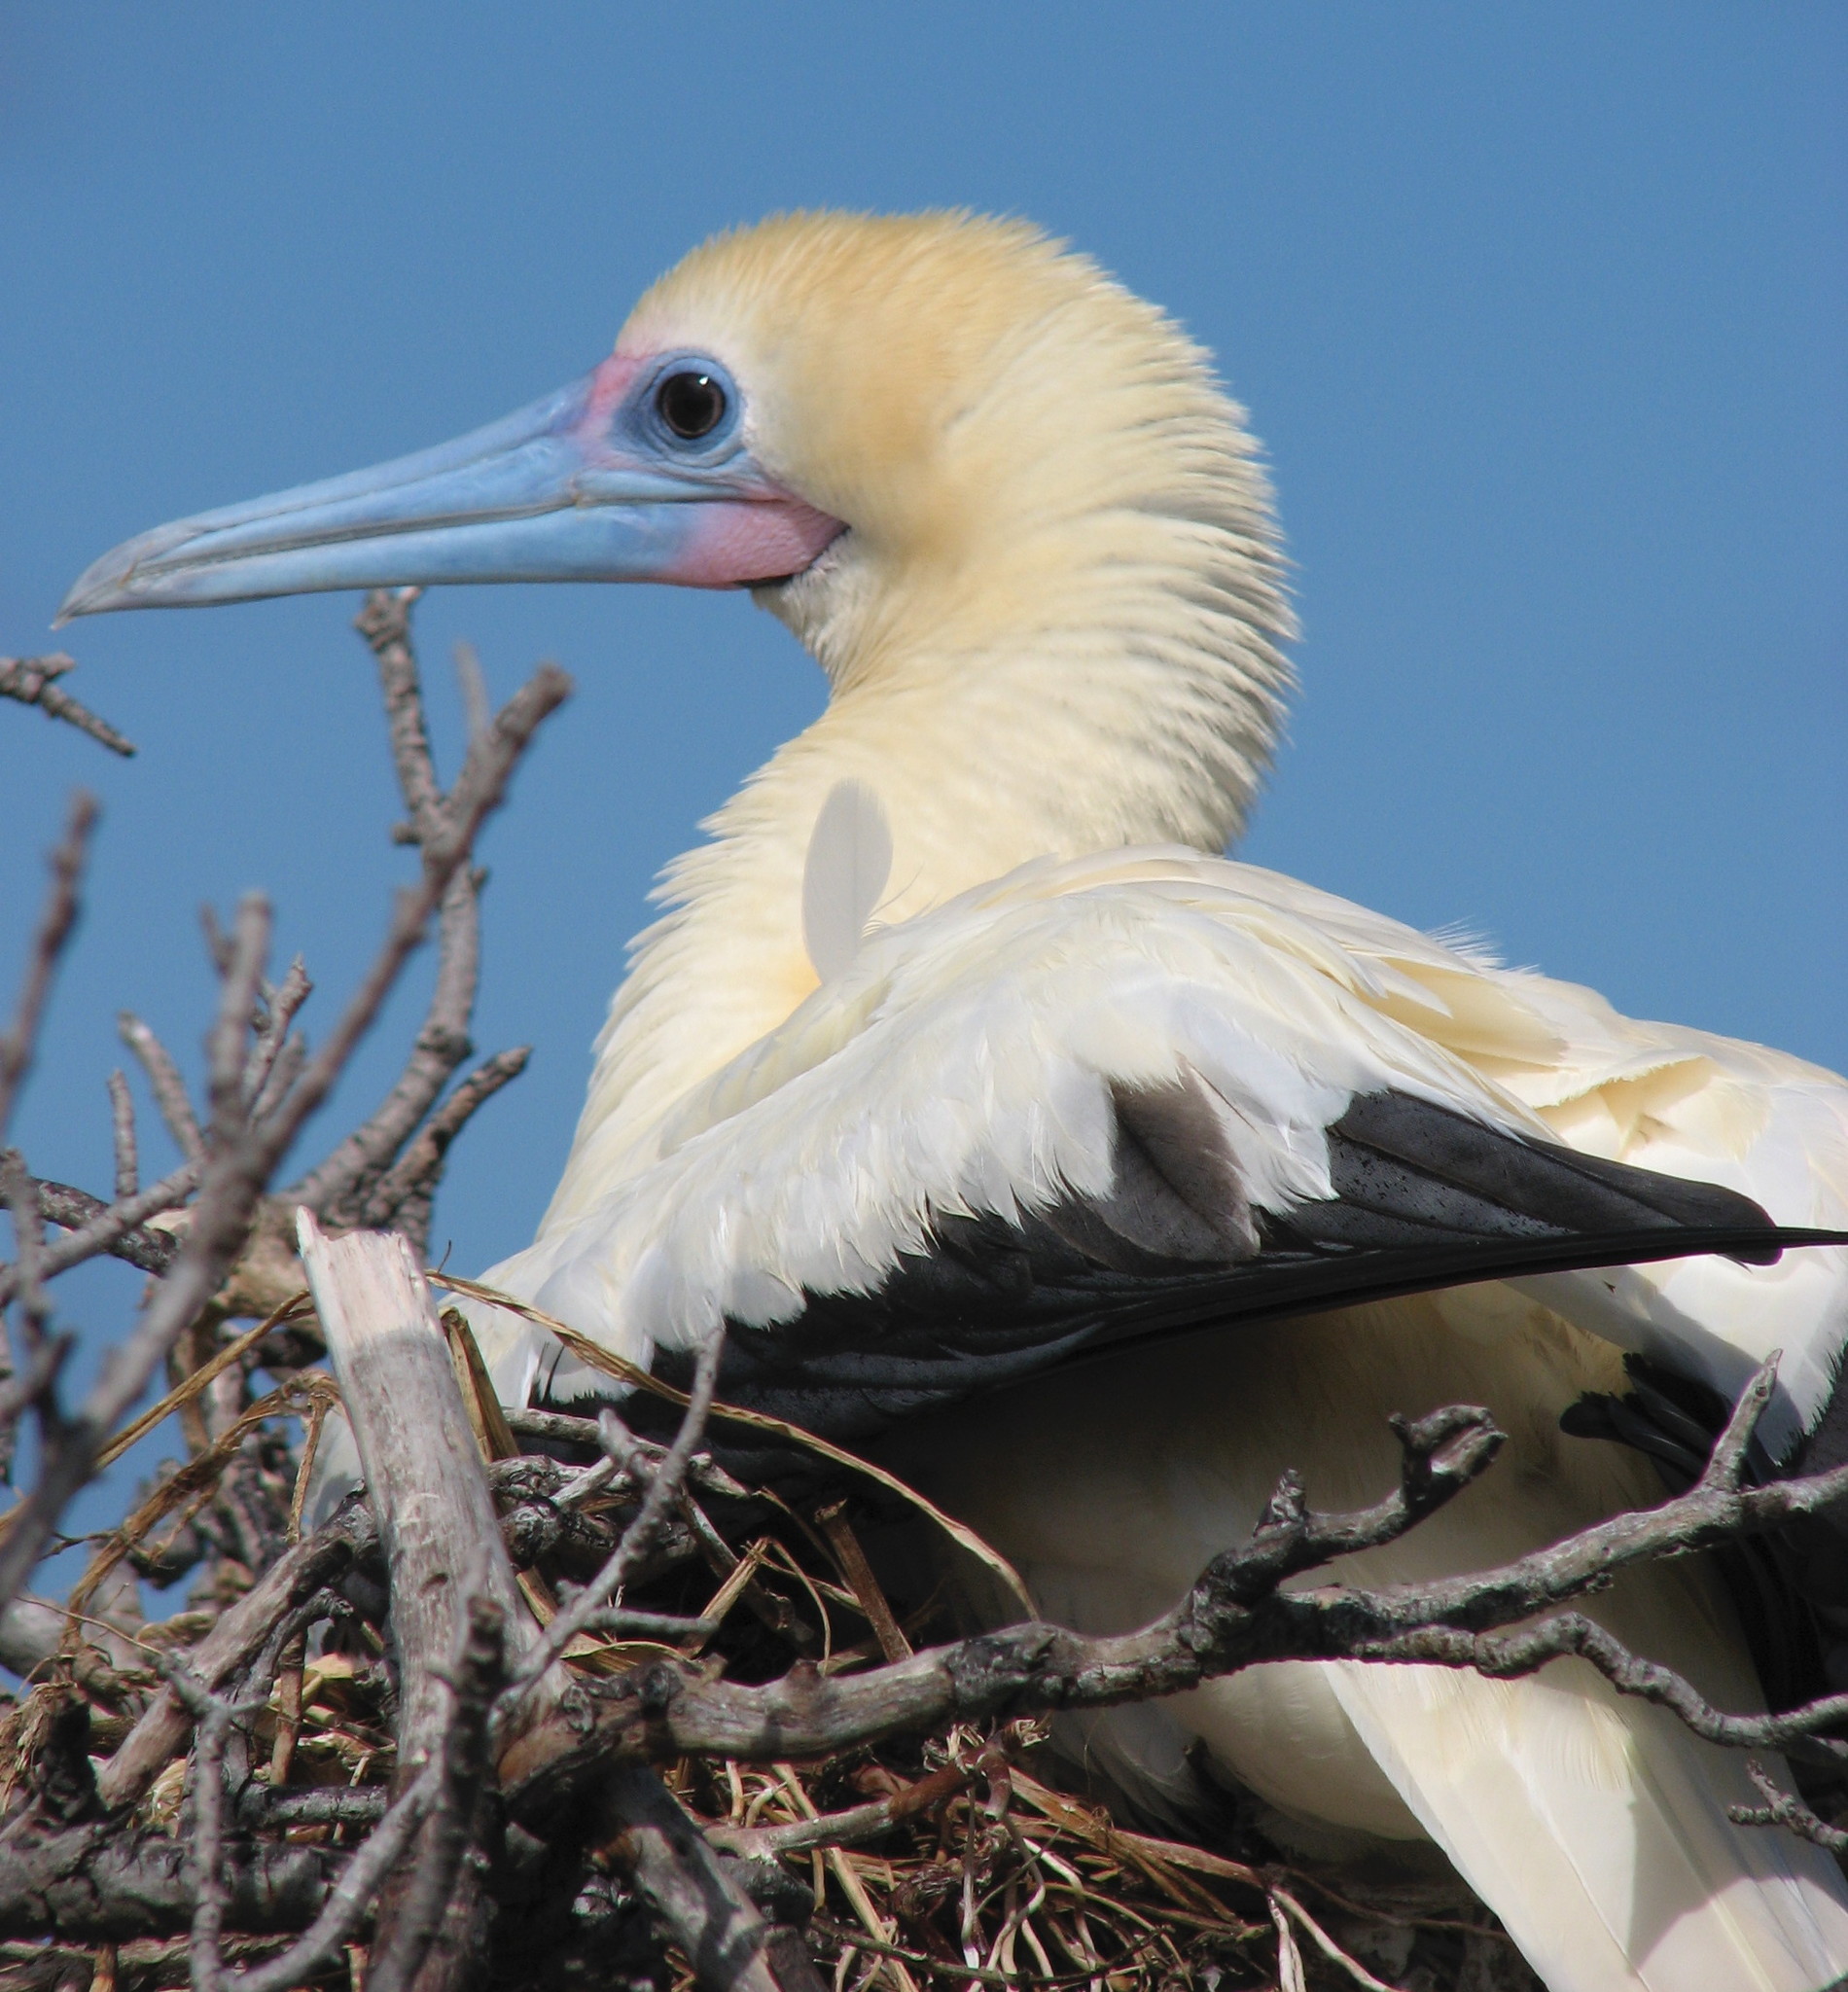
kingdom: Animalia
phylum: Chordata
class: Aves
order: Suliformes
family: Sulidae
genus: Sula
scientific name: Sula sula
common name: Red-footed booby
